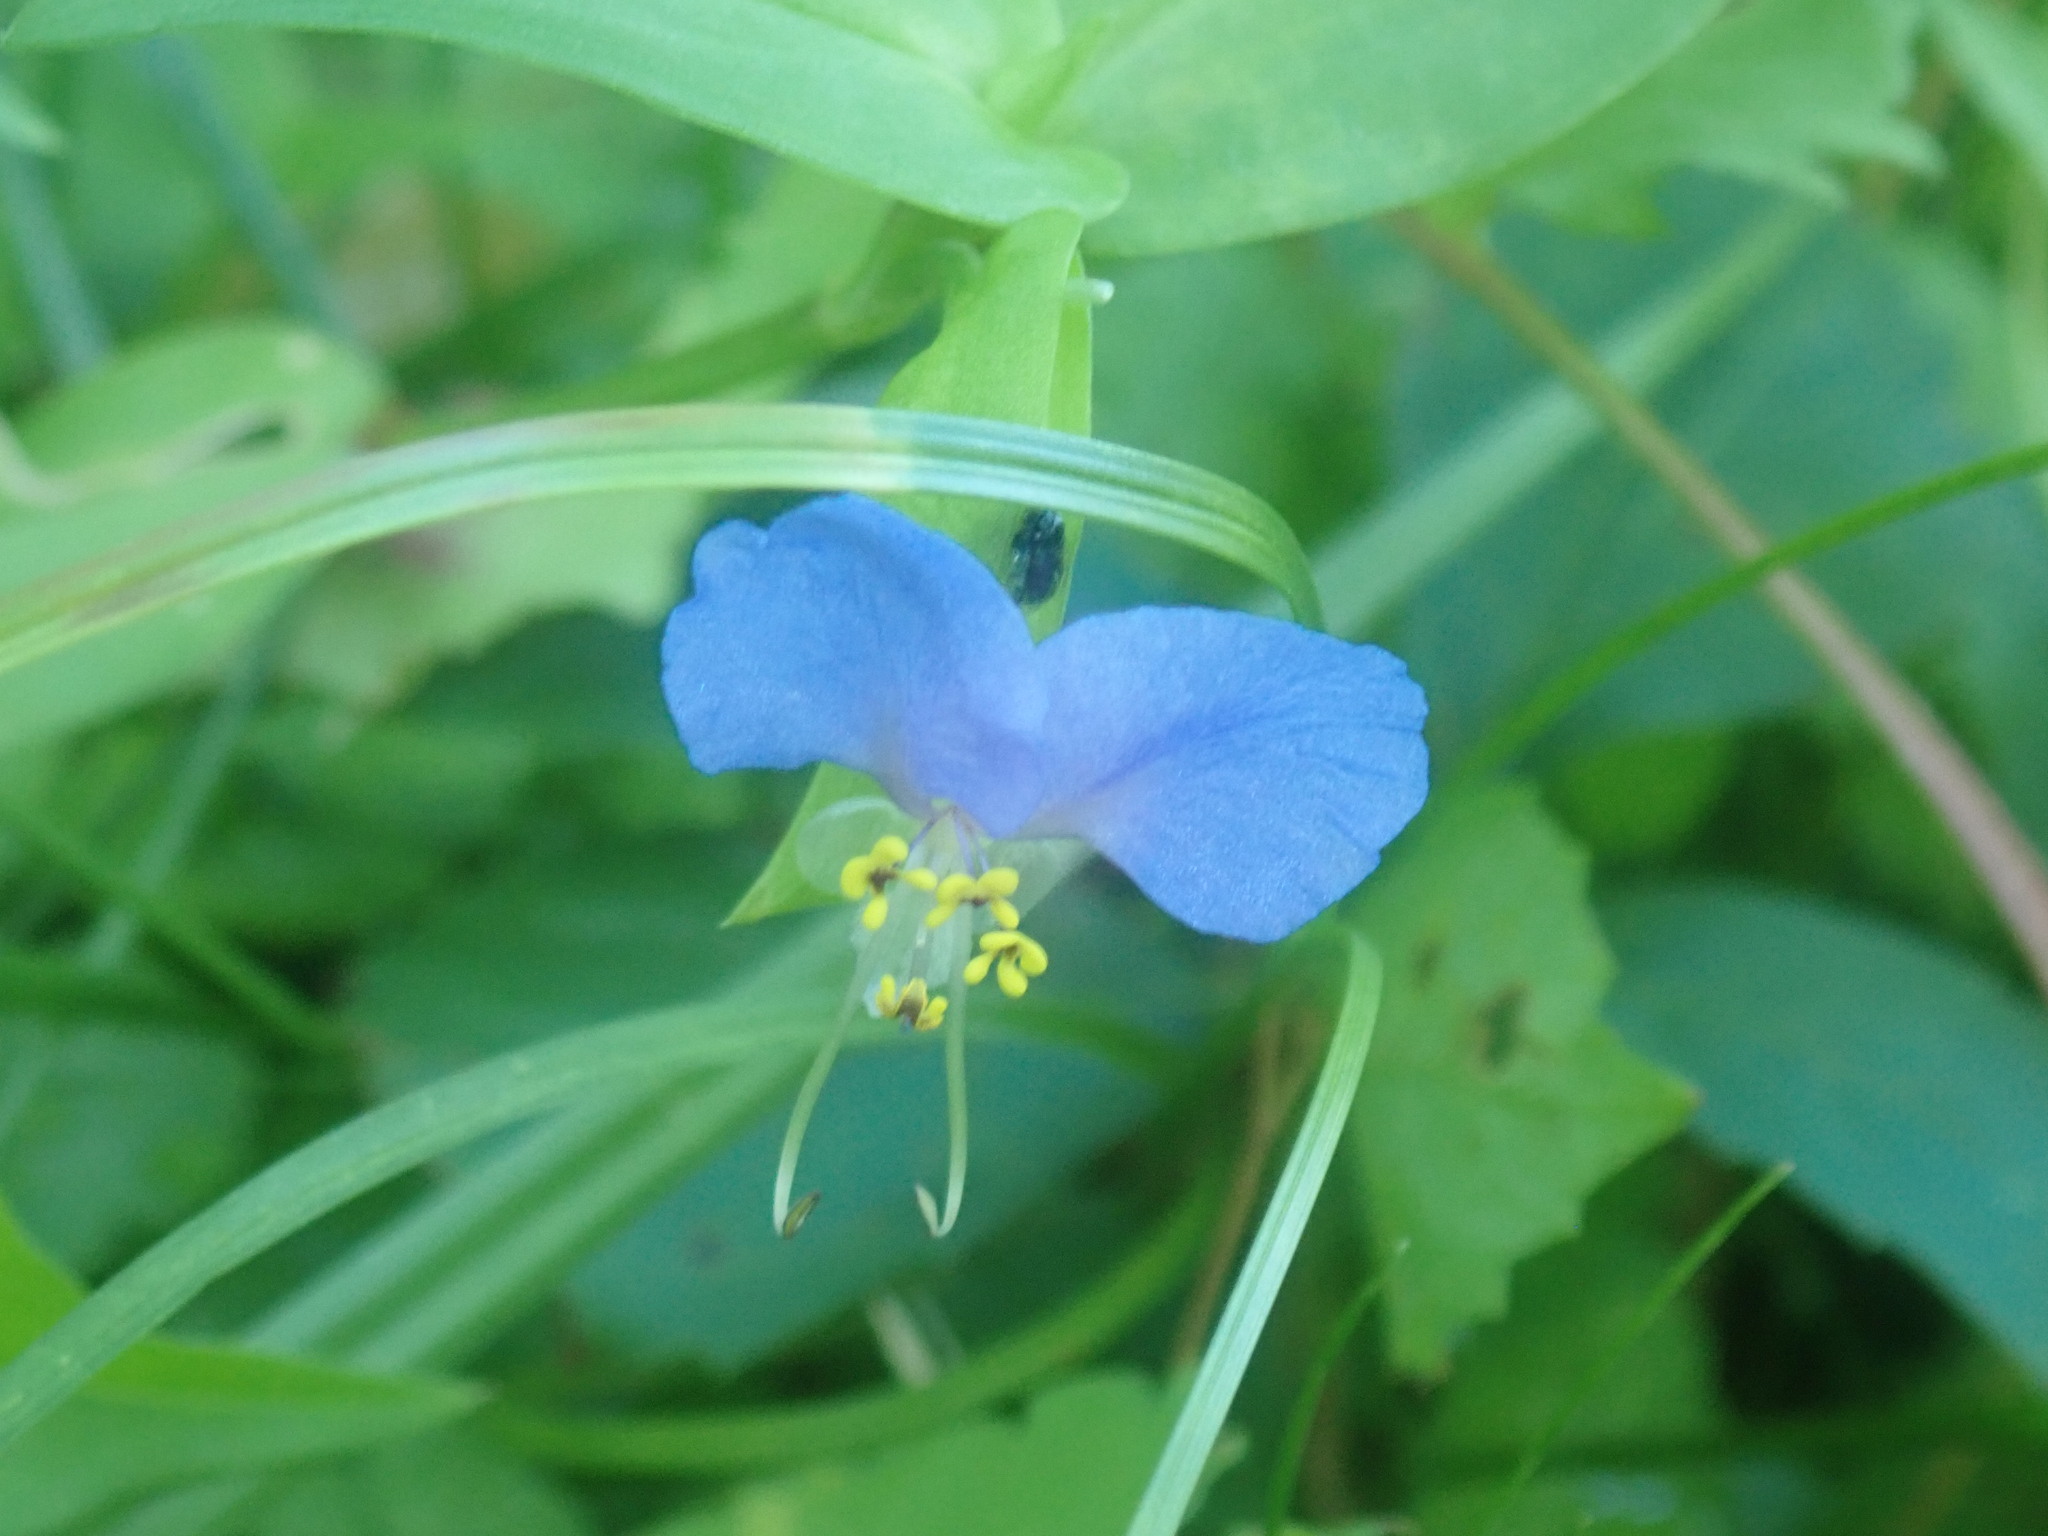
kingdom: Plantae
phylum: Tracheophyta
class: Liliopsida
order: Commelinales
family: Commelinaceae
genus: Commelina
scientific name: Commelina communis
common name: Asiatic dayflower
